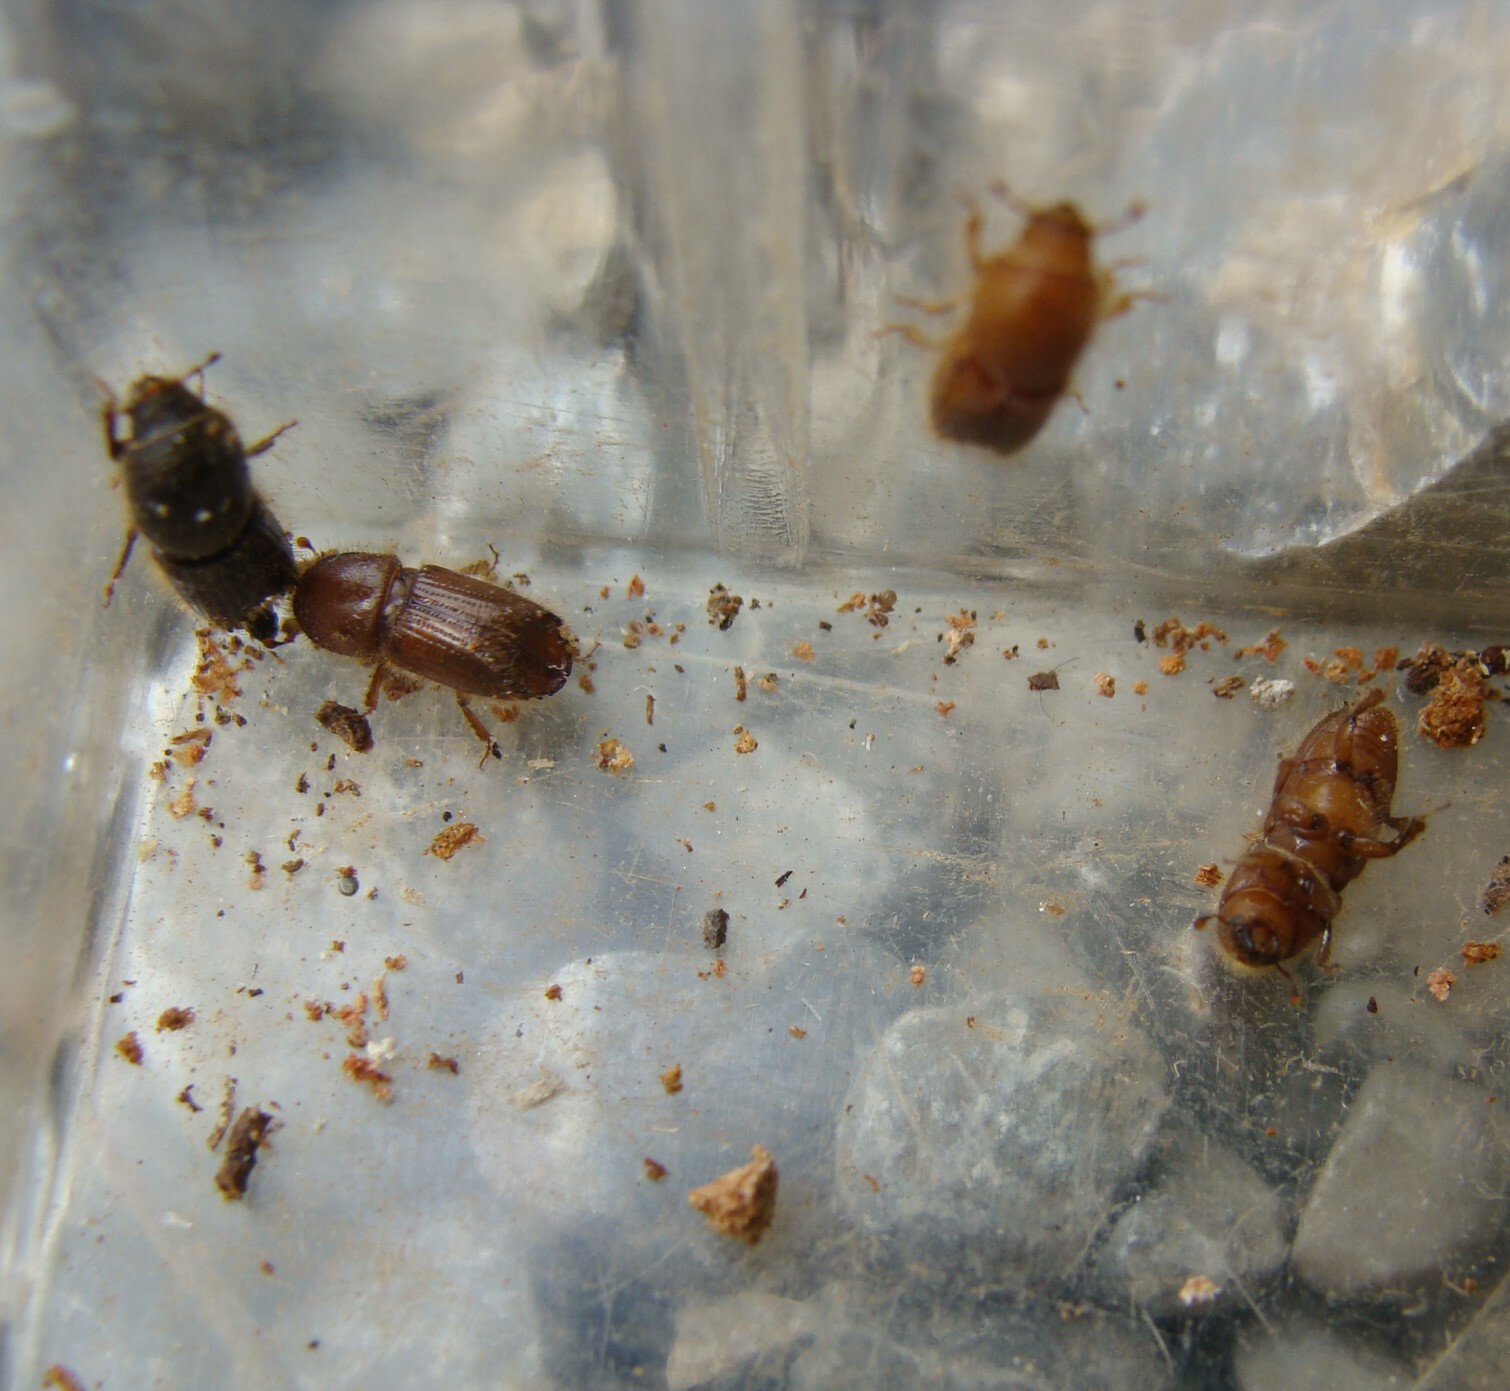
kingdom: Animalia
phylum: Arthropoda
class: Insecta
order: Coleoptera
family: Curculionidae
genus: Ips
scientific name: Ips sexdentatus
